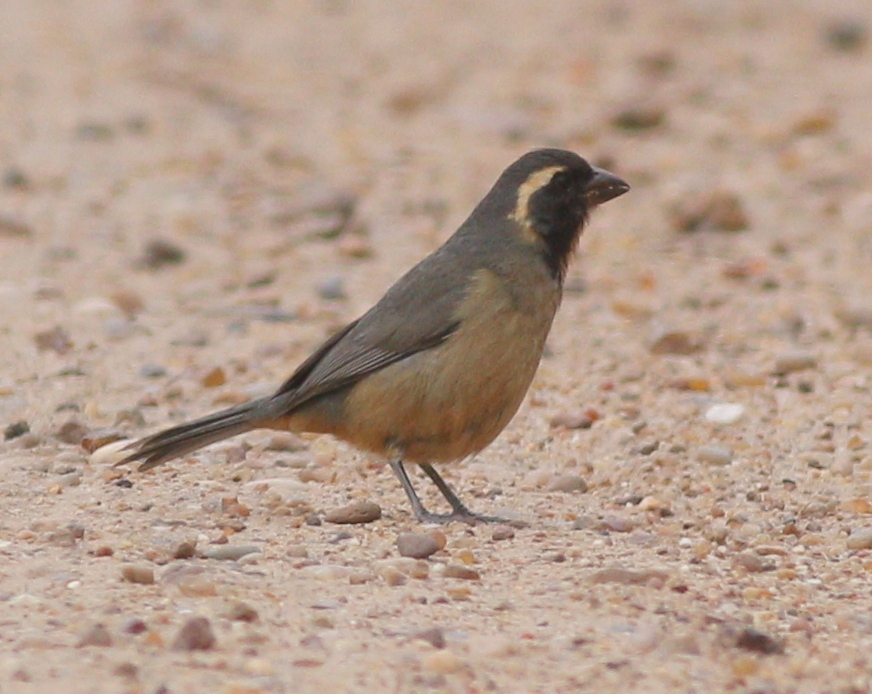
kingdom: Animalia
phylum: Chordata
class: Aves
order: Passeriformes
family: Thraupidae
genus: Saltator
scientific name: Saltator aurantiirostris
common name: Golden-billed saltator
